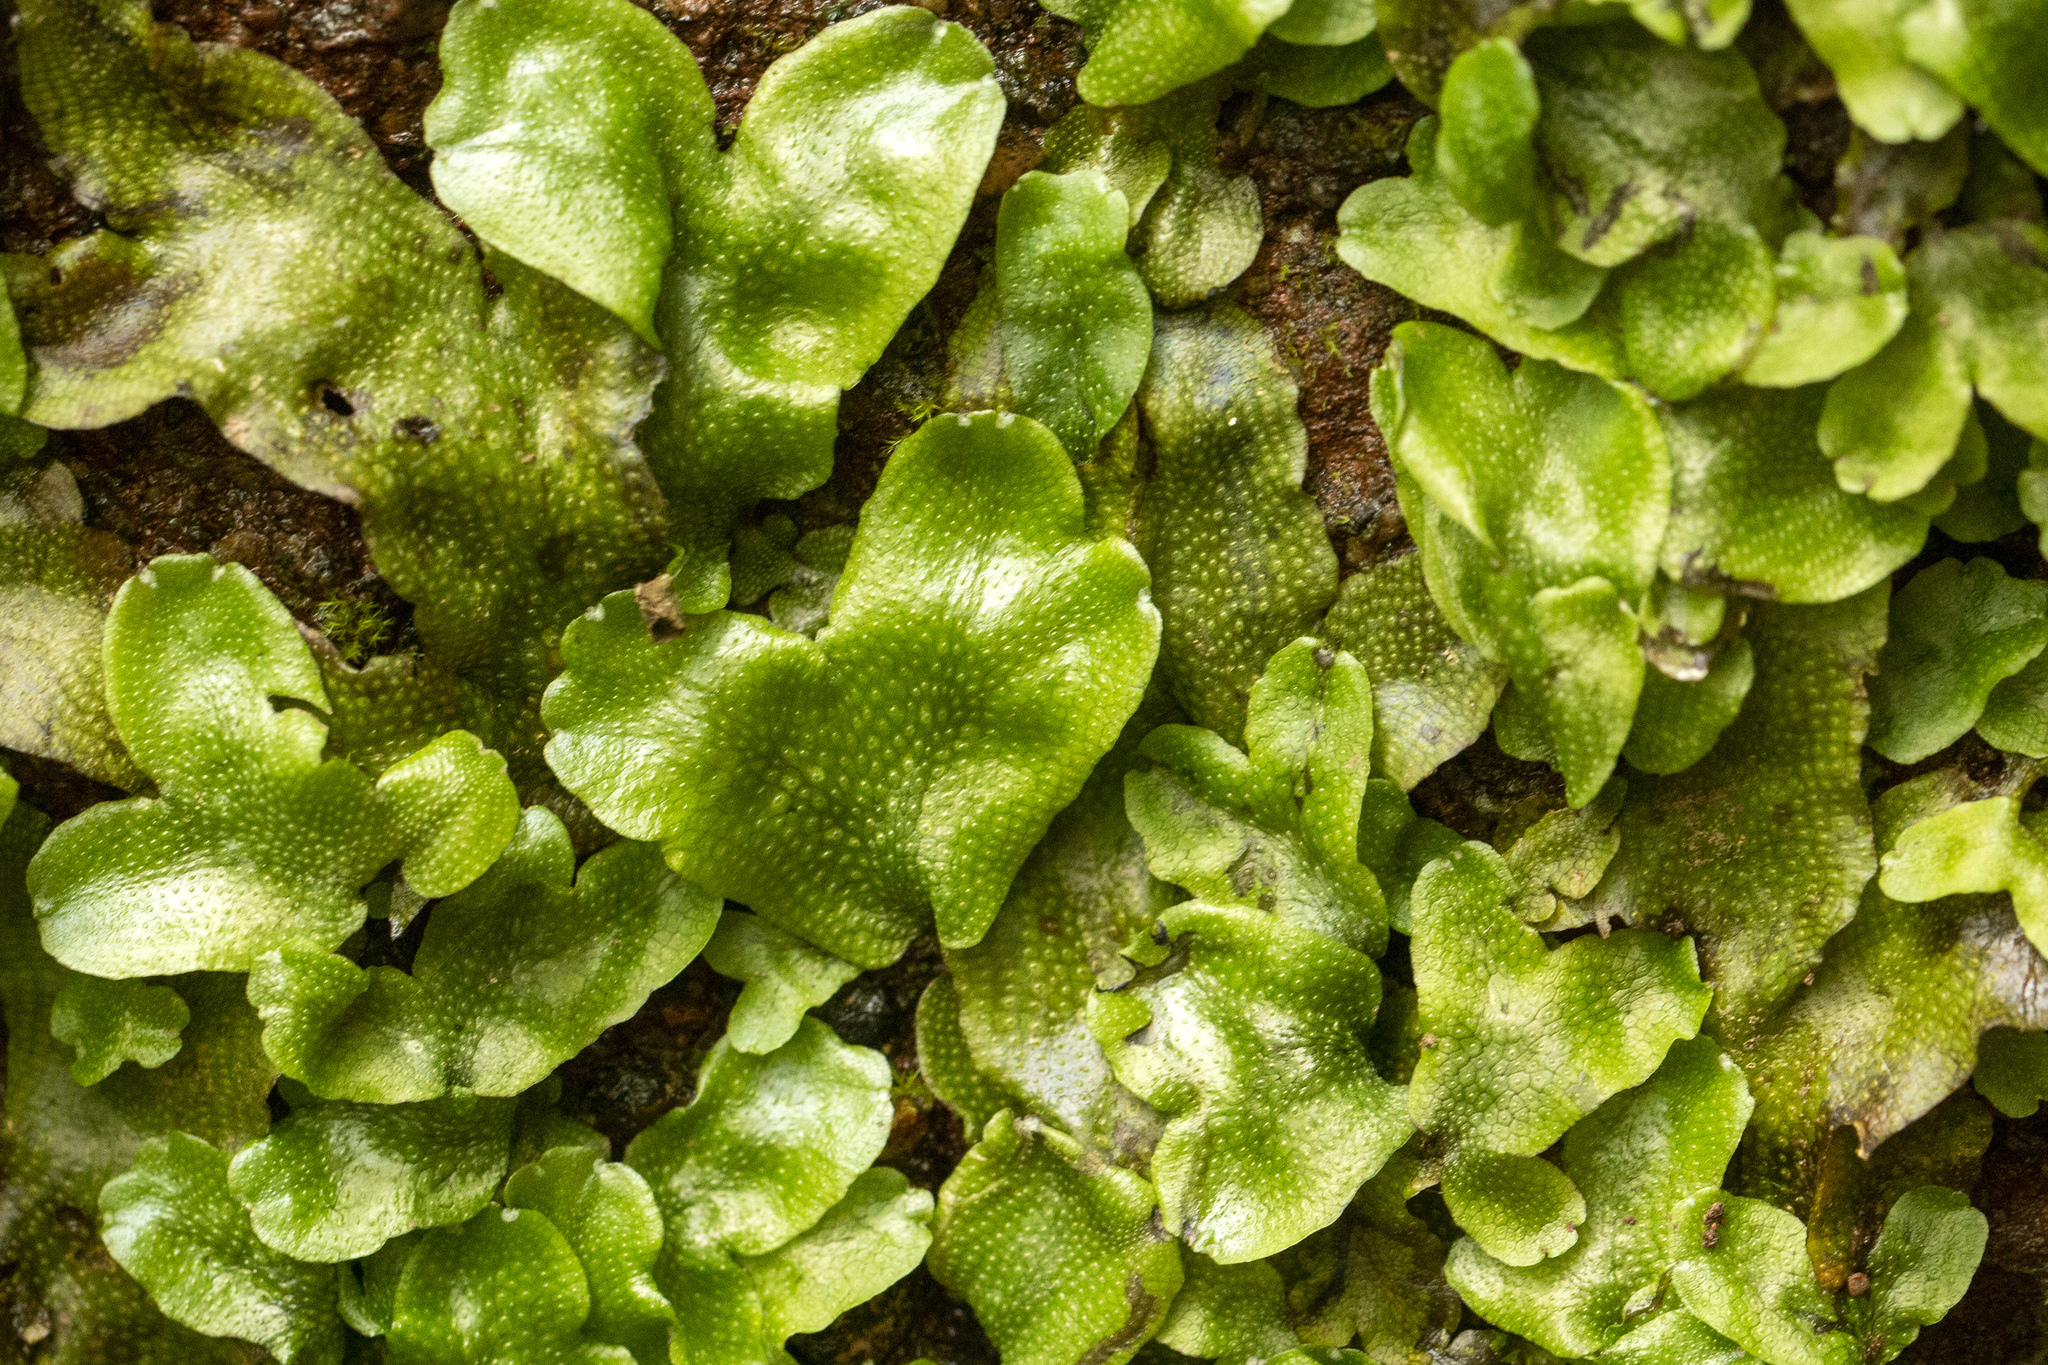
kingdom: Plantae
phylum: Marchantiophyta
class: Marchantiopsida
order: Marchantiales
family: Conocephalaceae
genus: Conocephalum
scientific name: Conocephalum conicum
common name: Great scented liverwort
